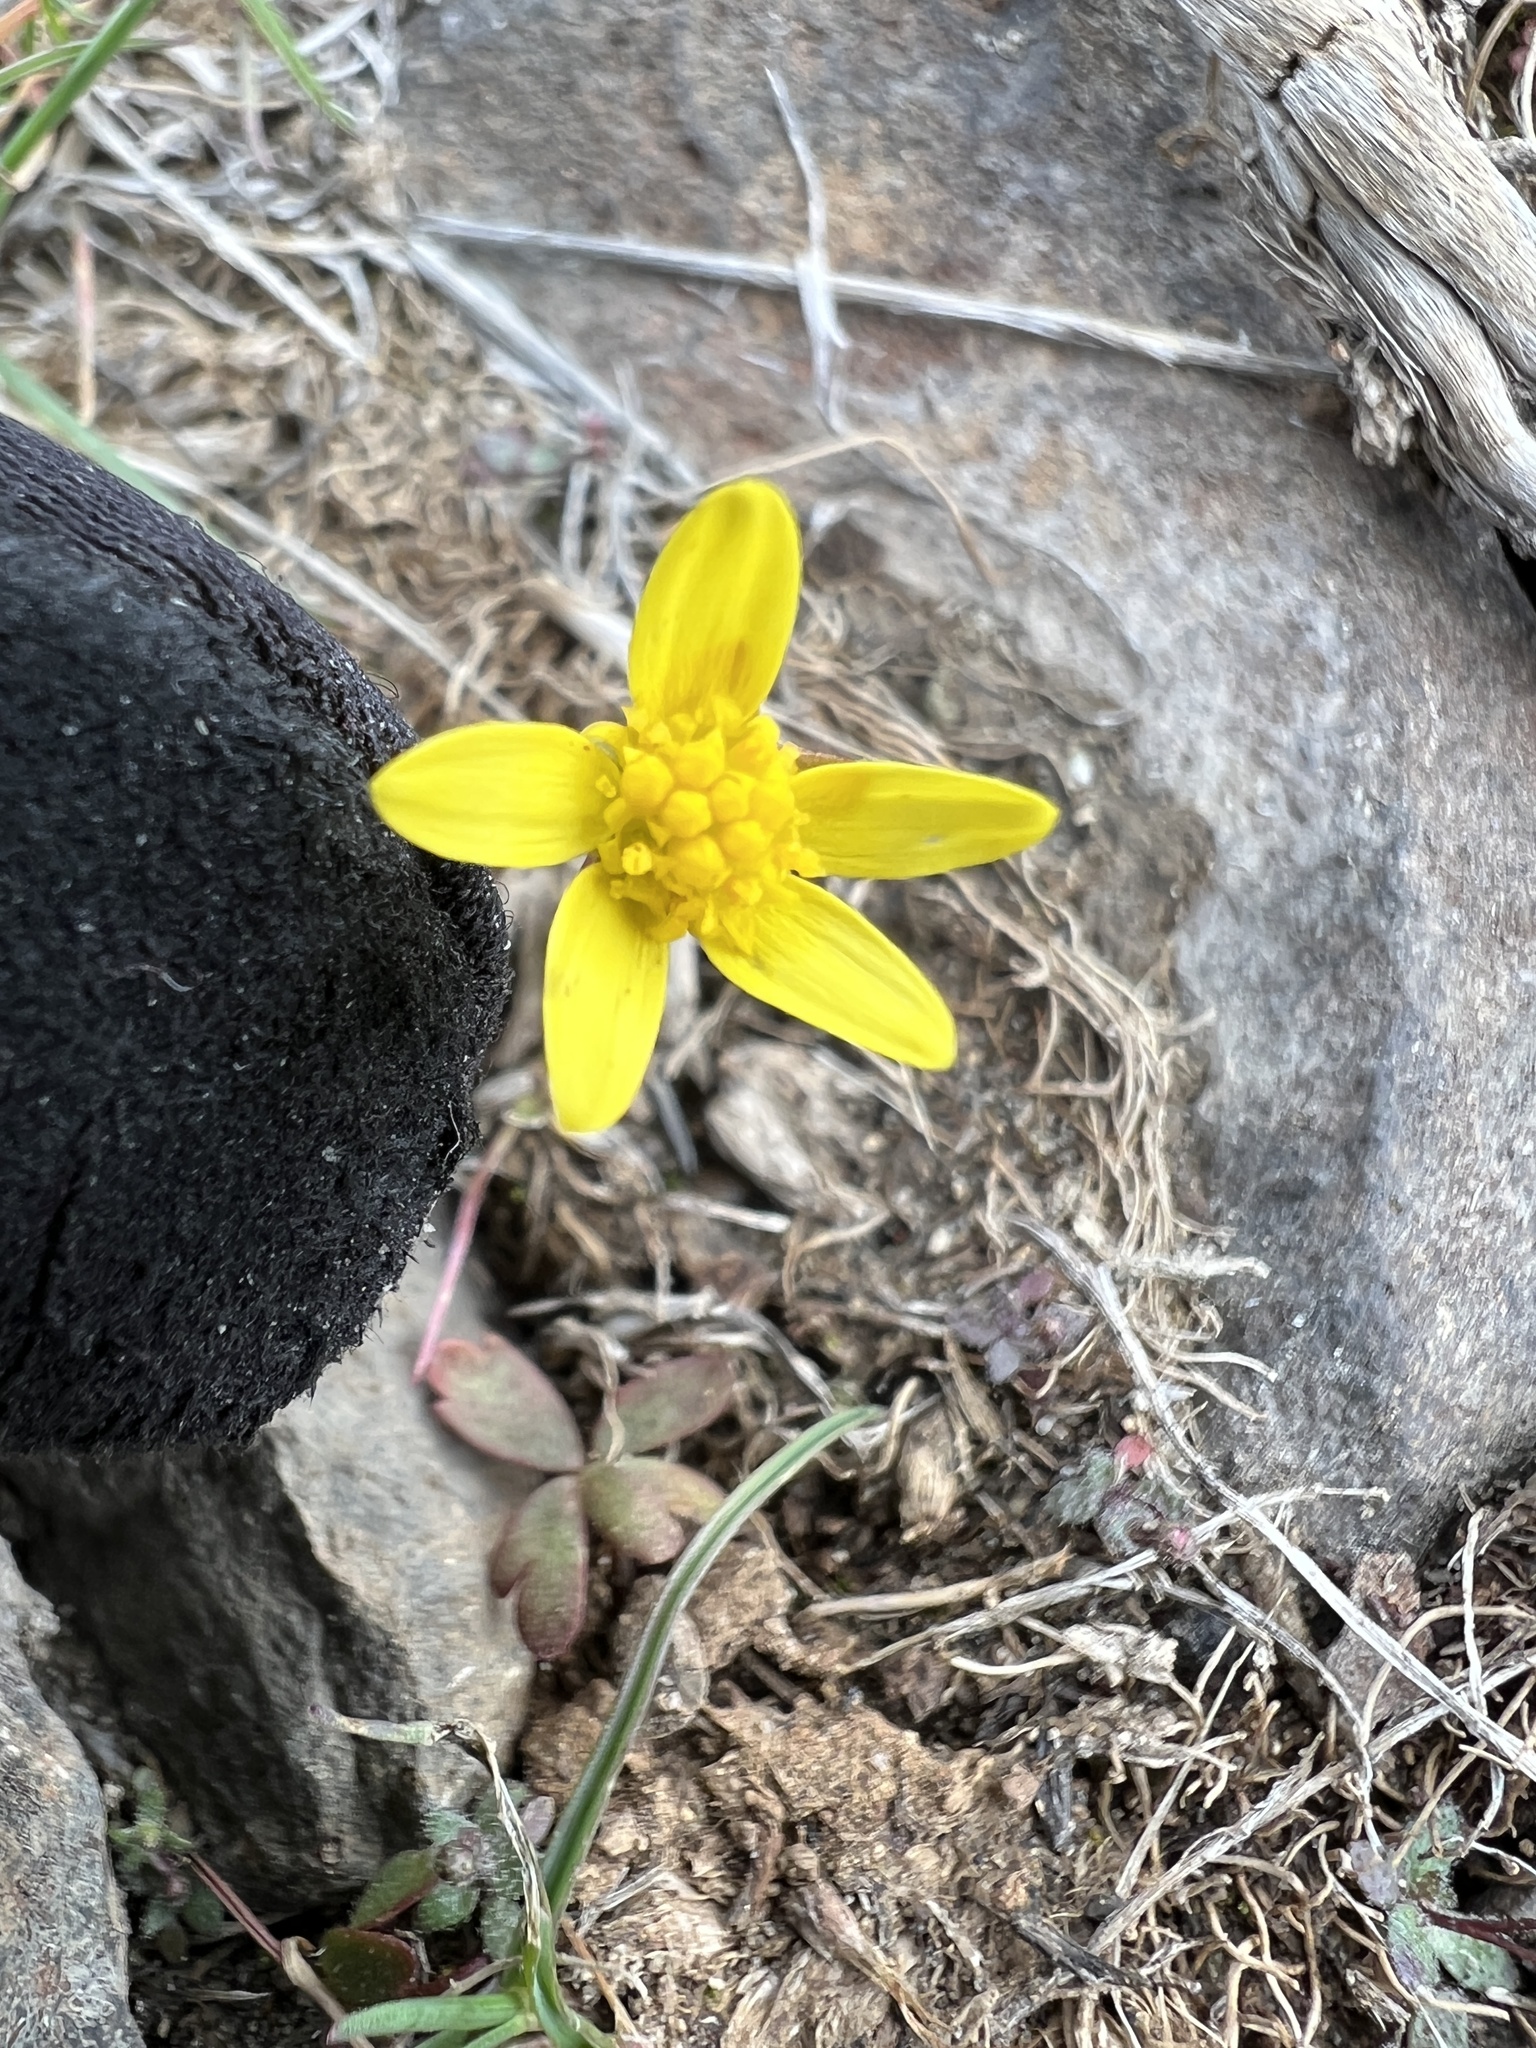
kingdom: Plantae
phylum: Tracheophyta
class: Magnoliopsida
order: Asterales
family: Asteraceae
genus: Crocidium
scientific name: Crocidium multicaule
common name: Common spring gold
